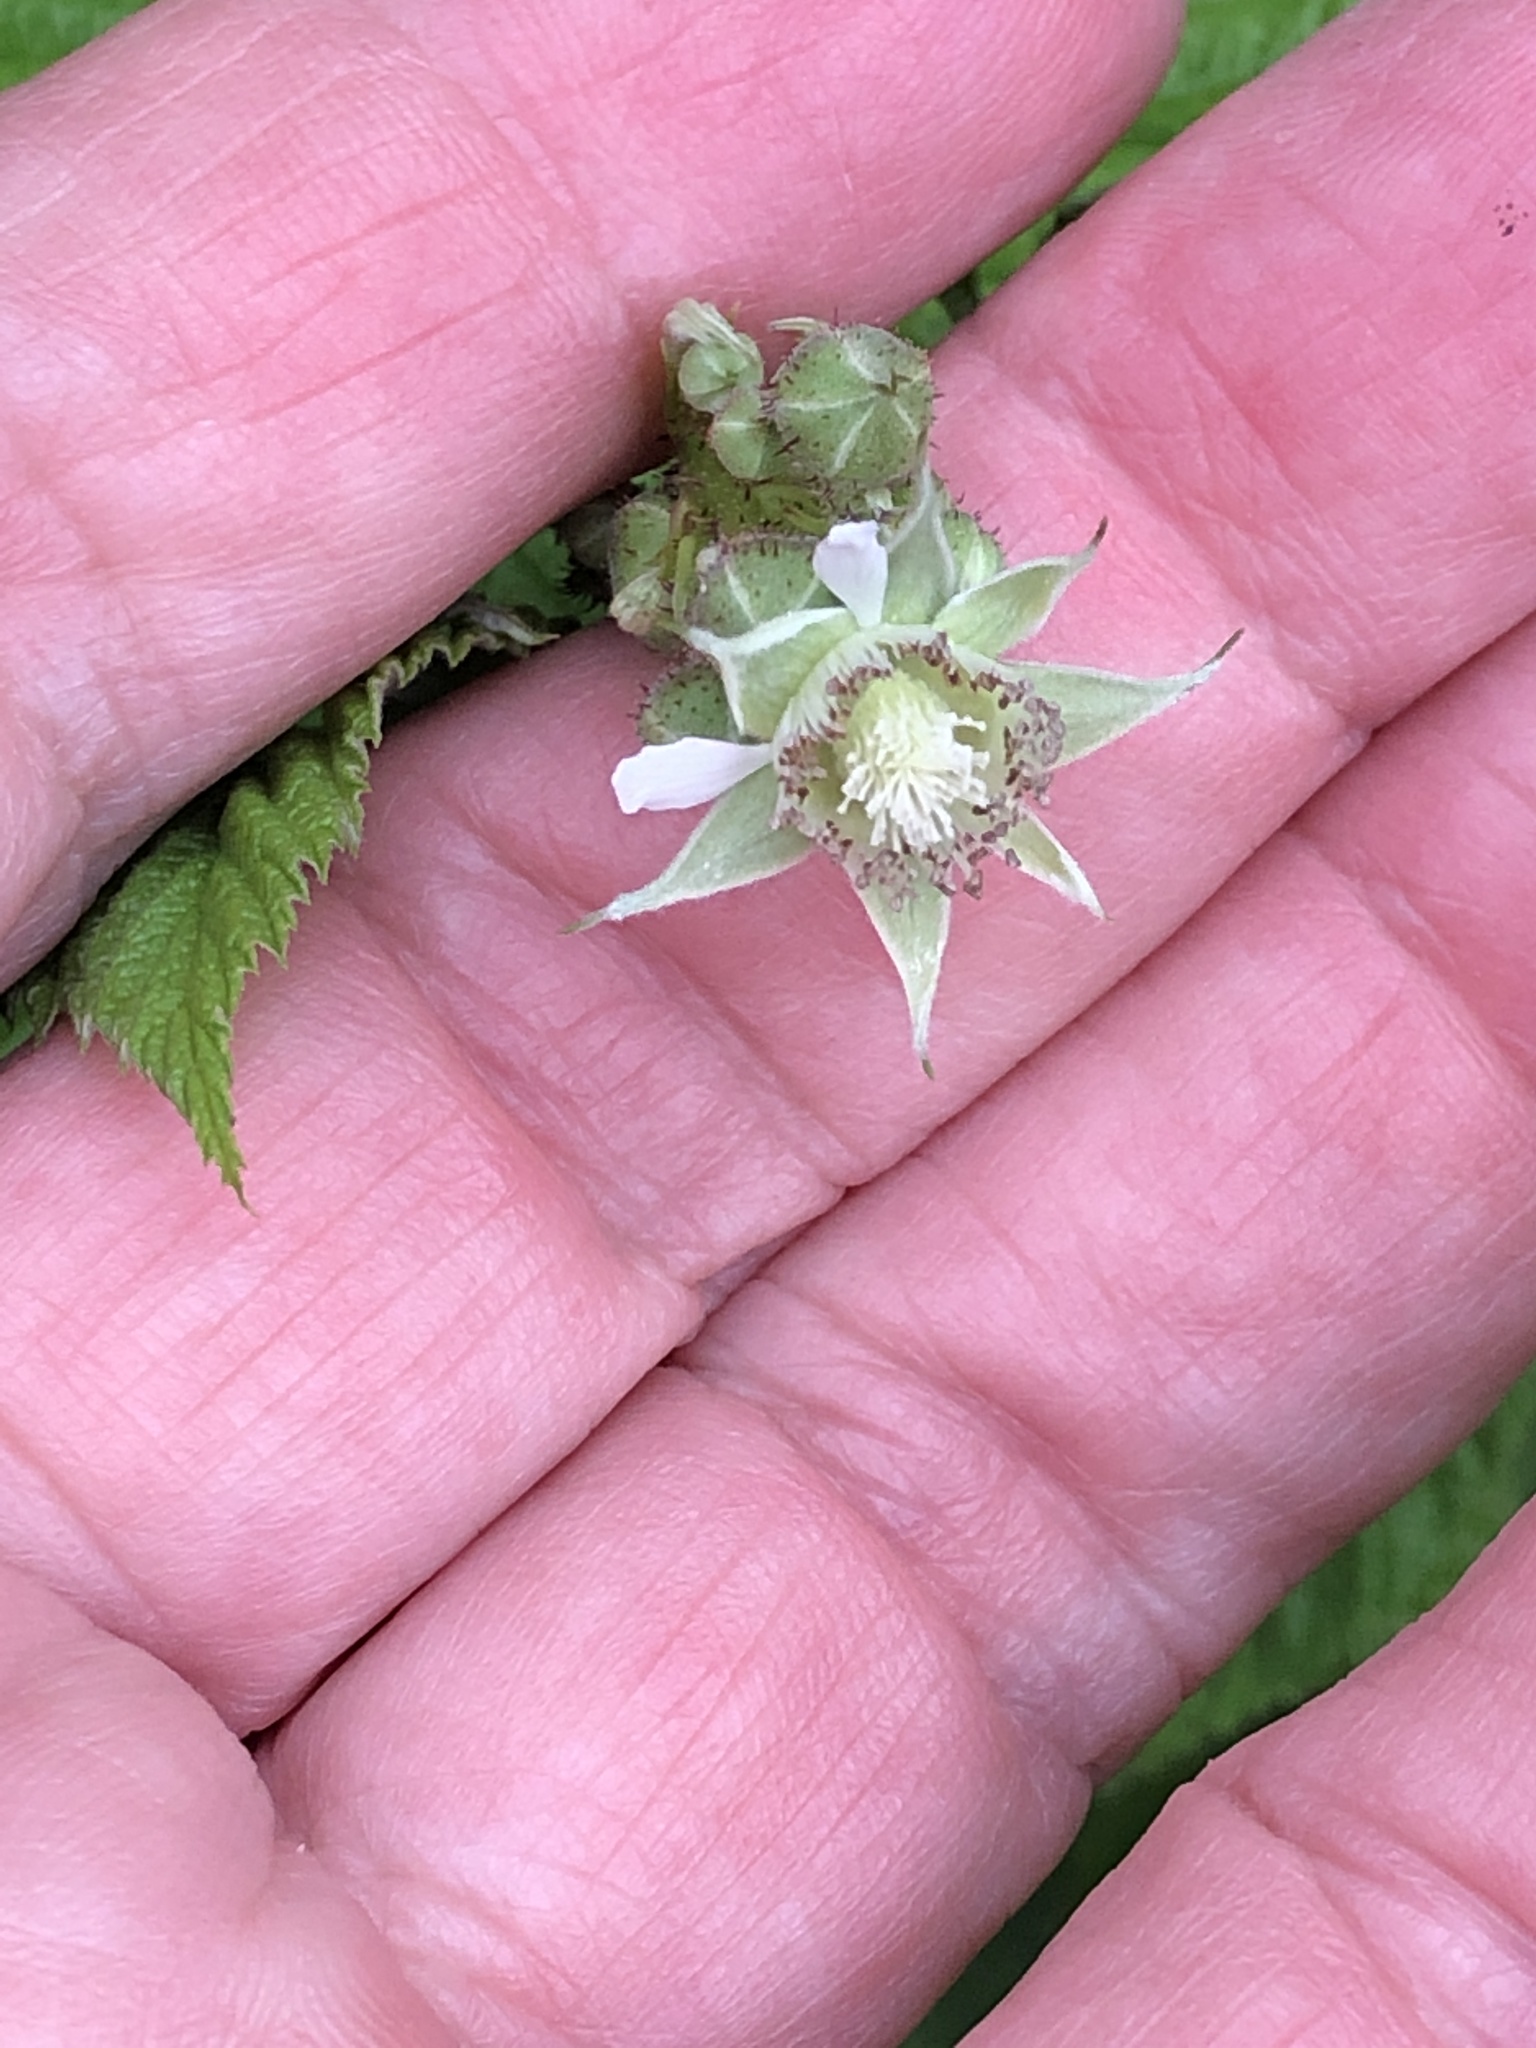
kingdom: Plantae
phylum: Tracheophyta
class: Magnoliopsida
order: Rosales
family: Rosaceae
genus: Rubus
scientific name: Rubus occidentalis
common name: Black raspberry
